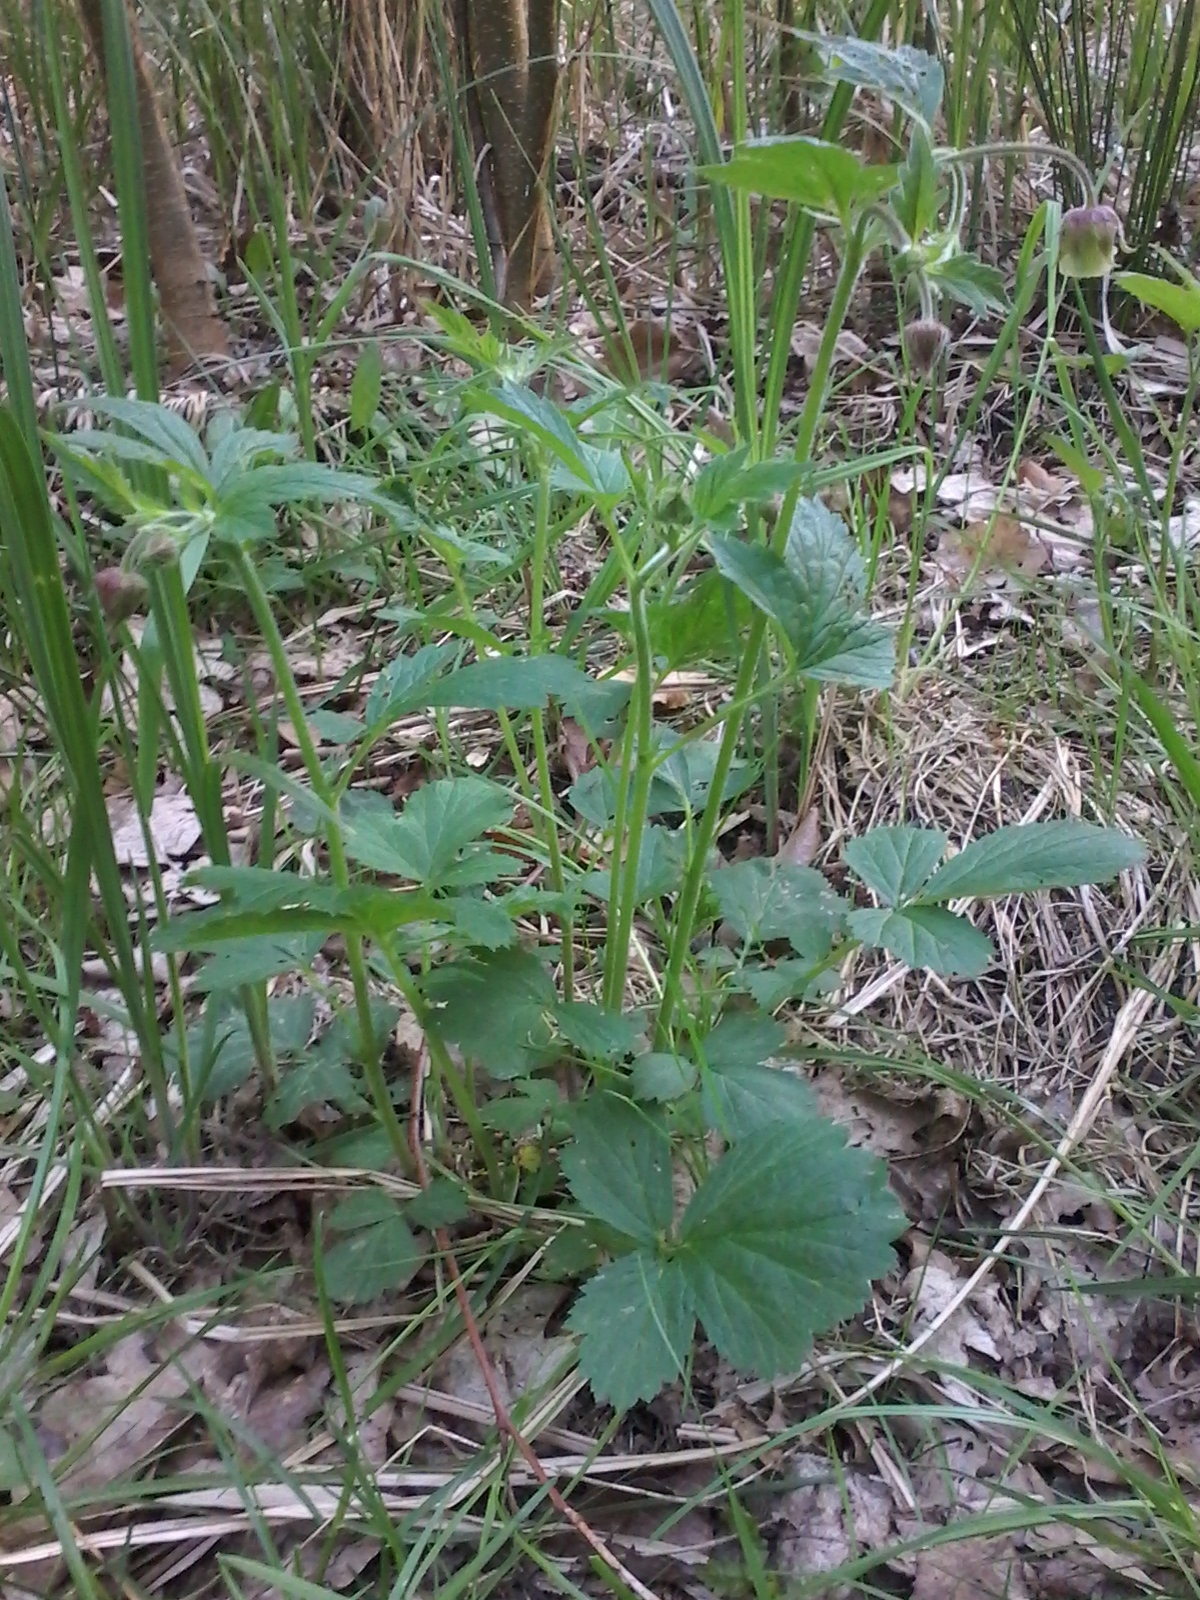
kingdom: Plantae
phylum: Tracheophyta
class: Magnoliopsida
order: Rosales
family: Rosaceae
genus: Geum
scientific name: Geum rivale
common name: Water avens
